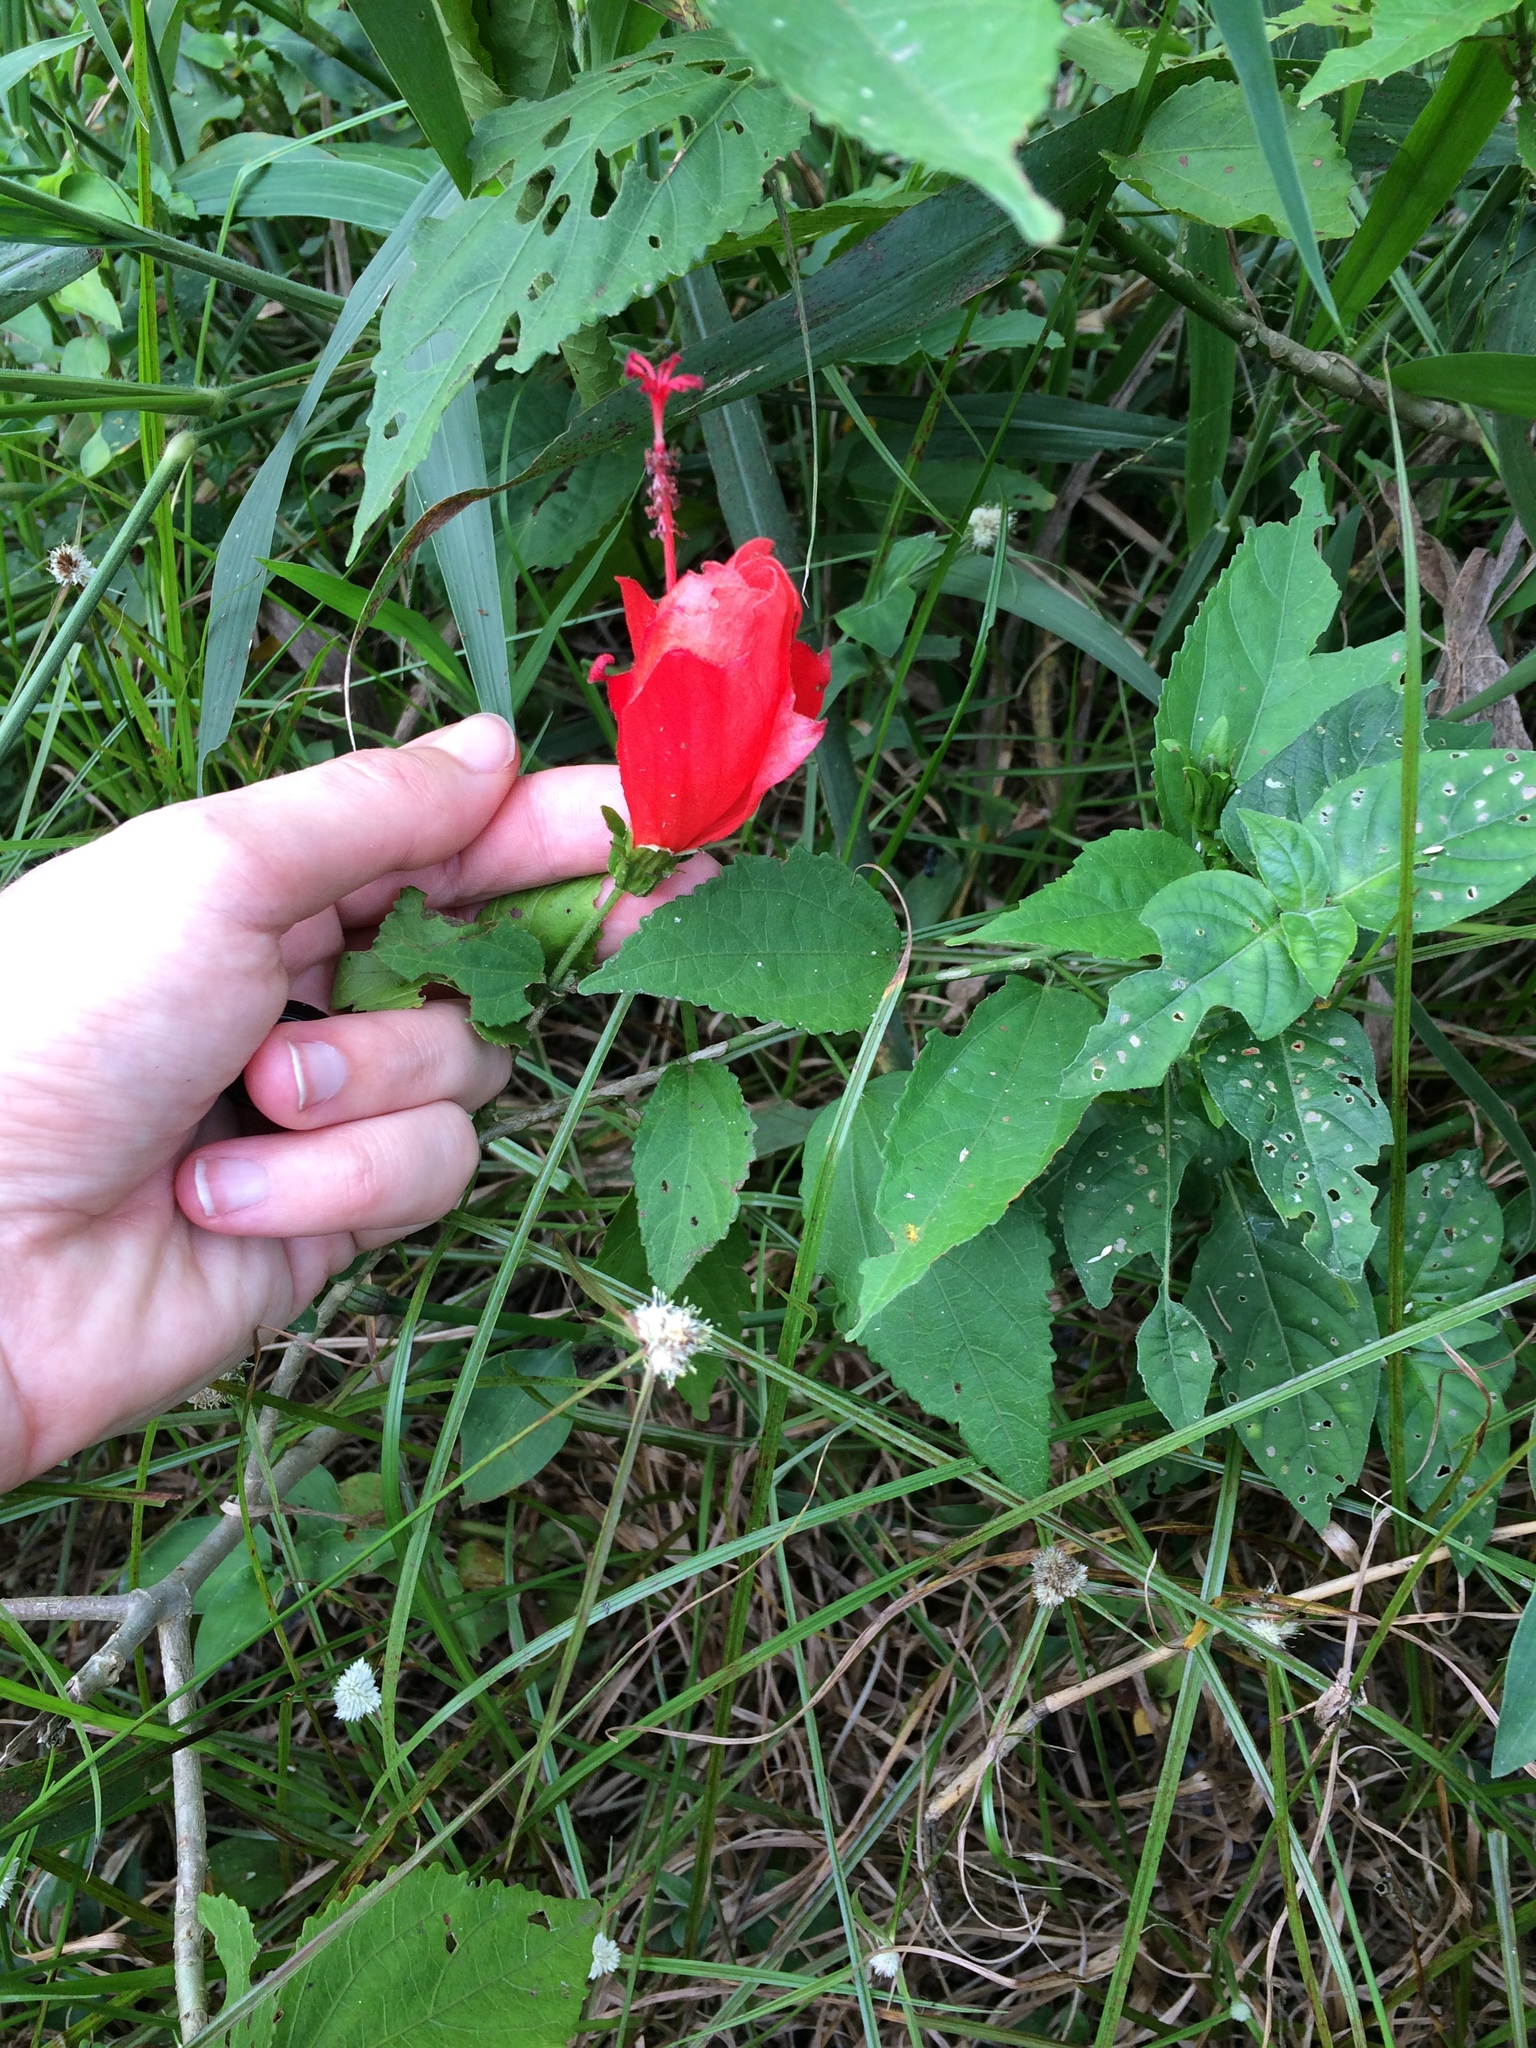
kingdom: Plantae
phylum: Tracheophyta
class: Magnoliopsida
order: Malvales
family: Malvaceae
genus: Malvaviscus
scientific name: Malvaviscus penduliflorus
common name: Mazapan
